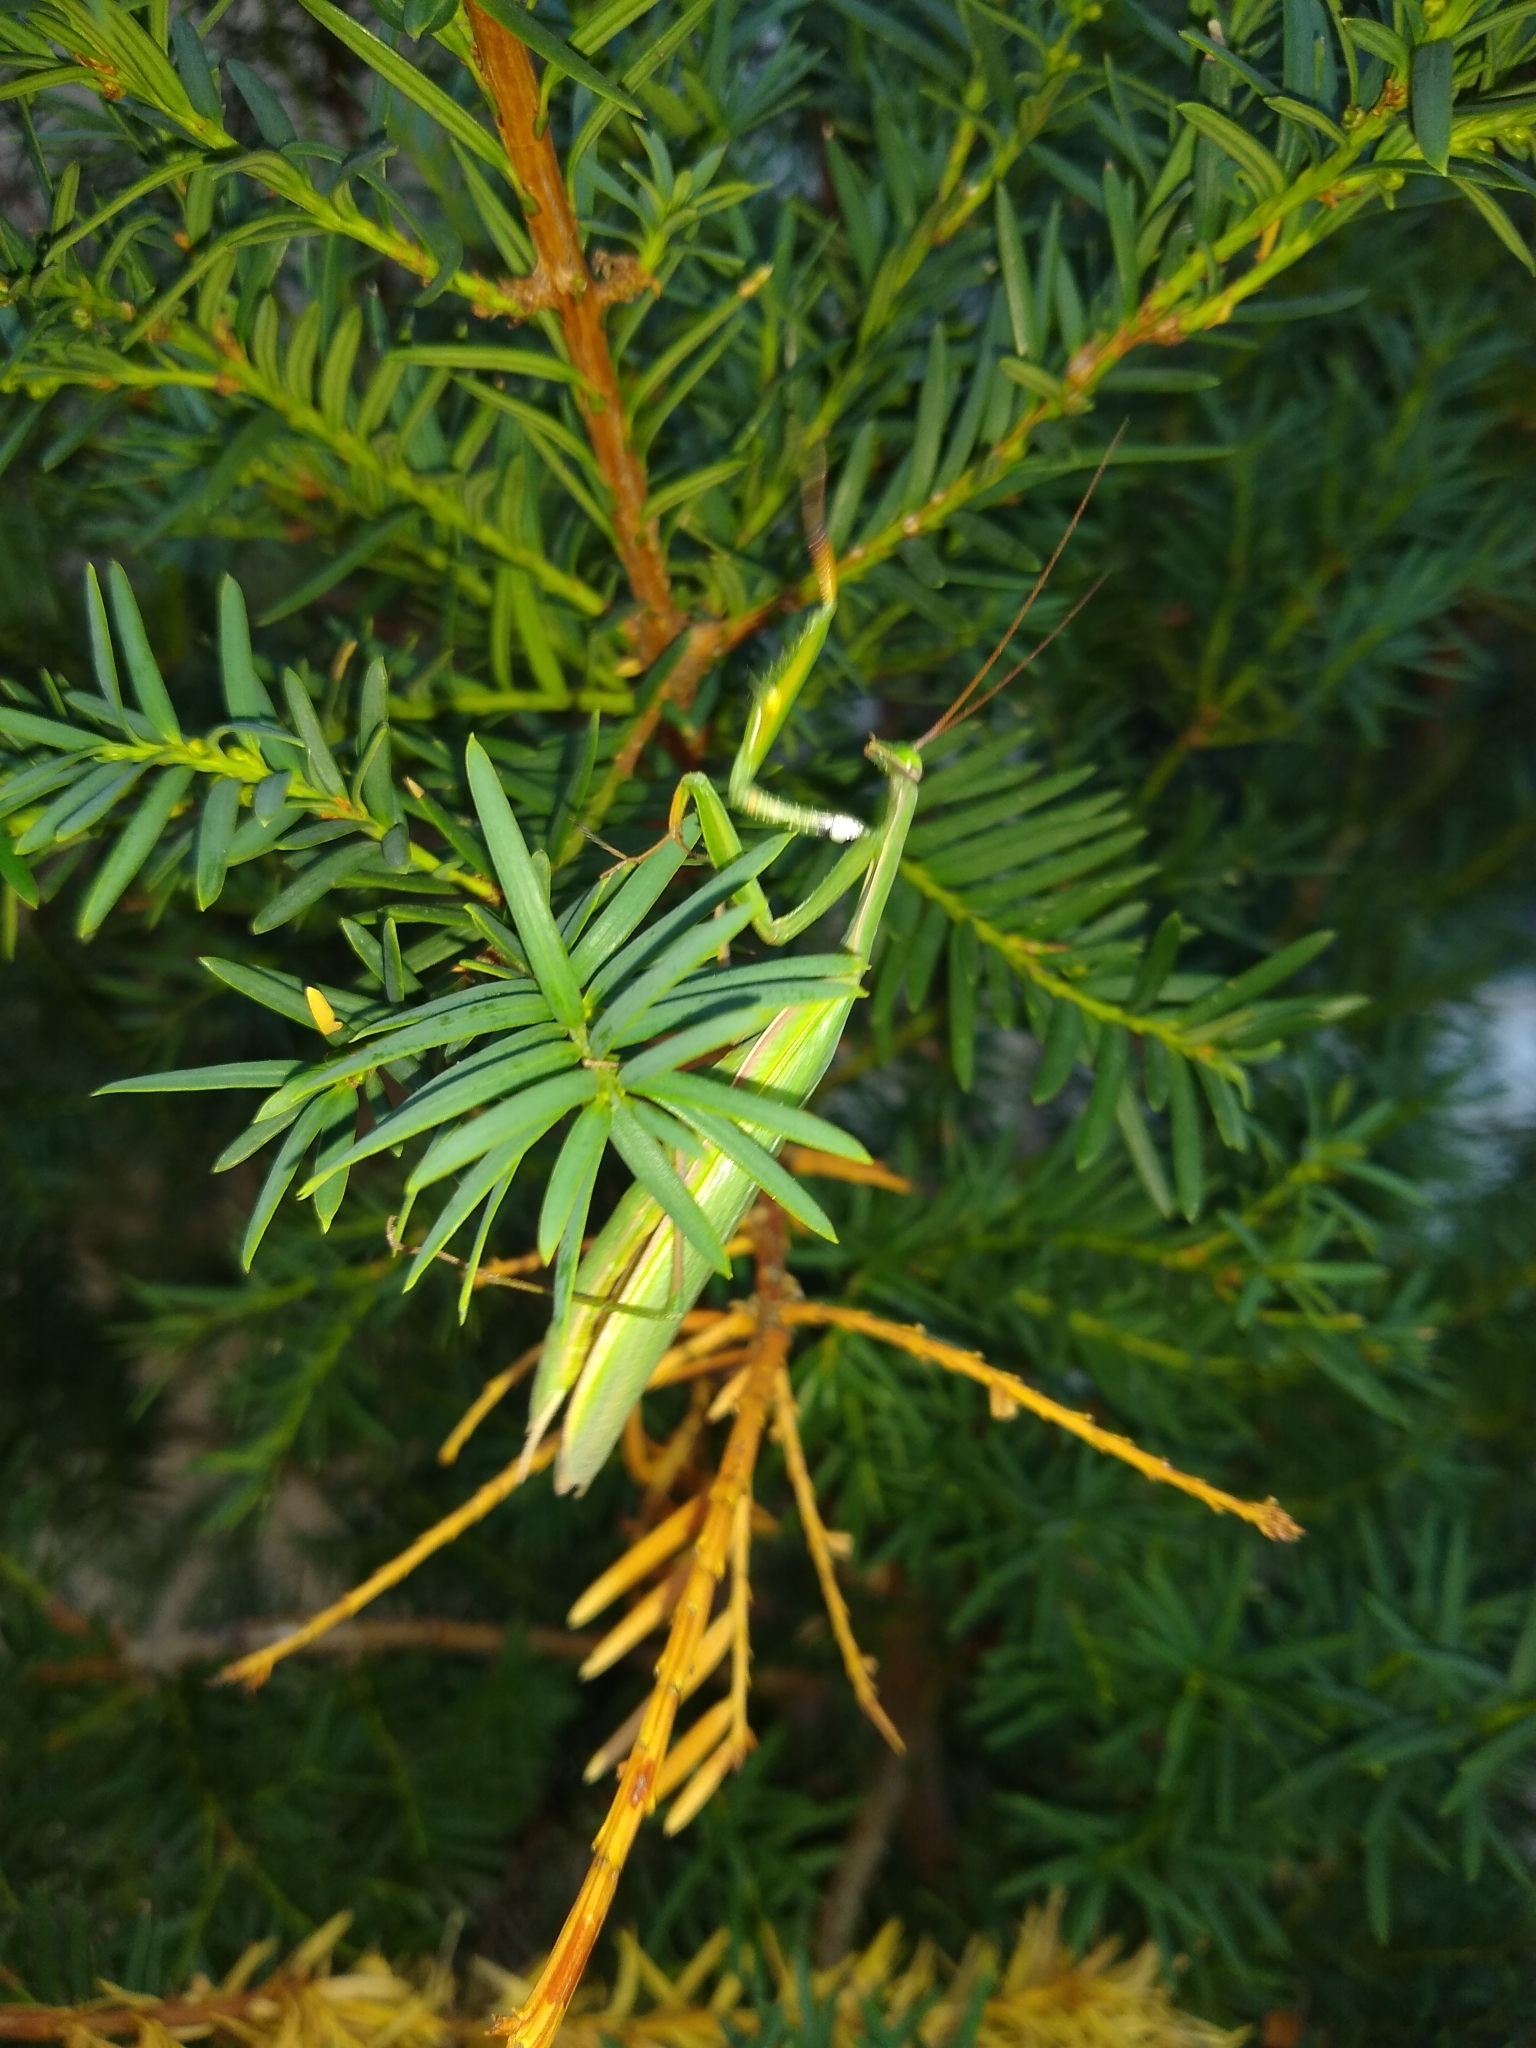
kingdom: Animalia
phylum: Arthropoda
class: Insecta
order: Mantodea
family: Mantidae
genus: Mantis
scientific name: Mantis religiosa
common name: Praying mantis
